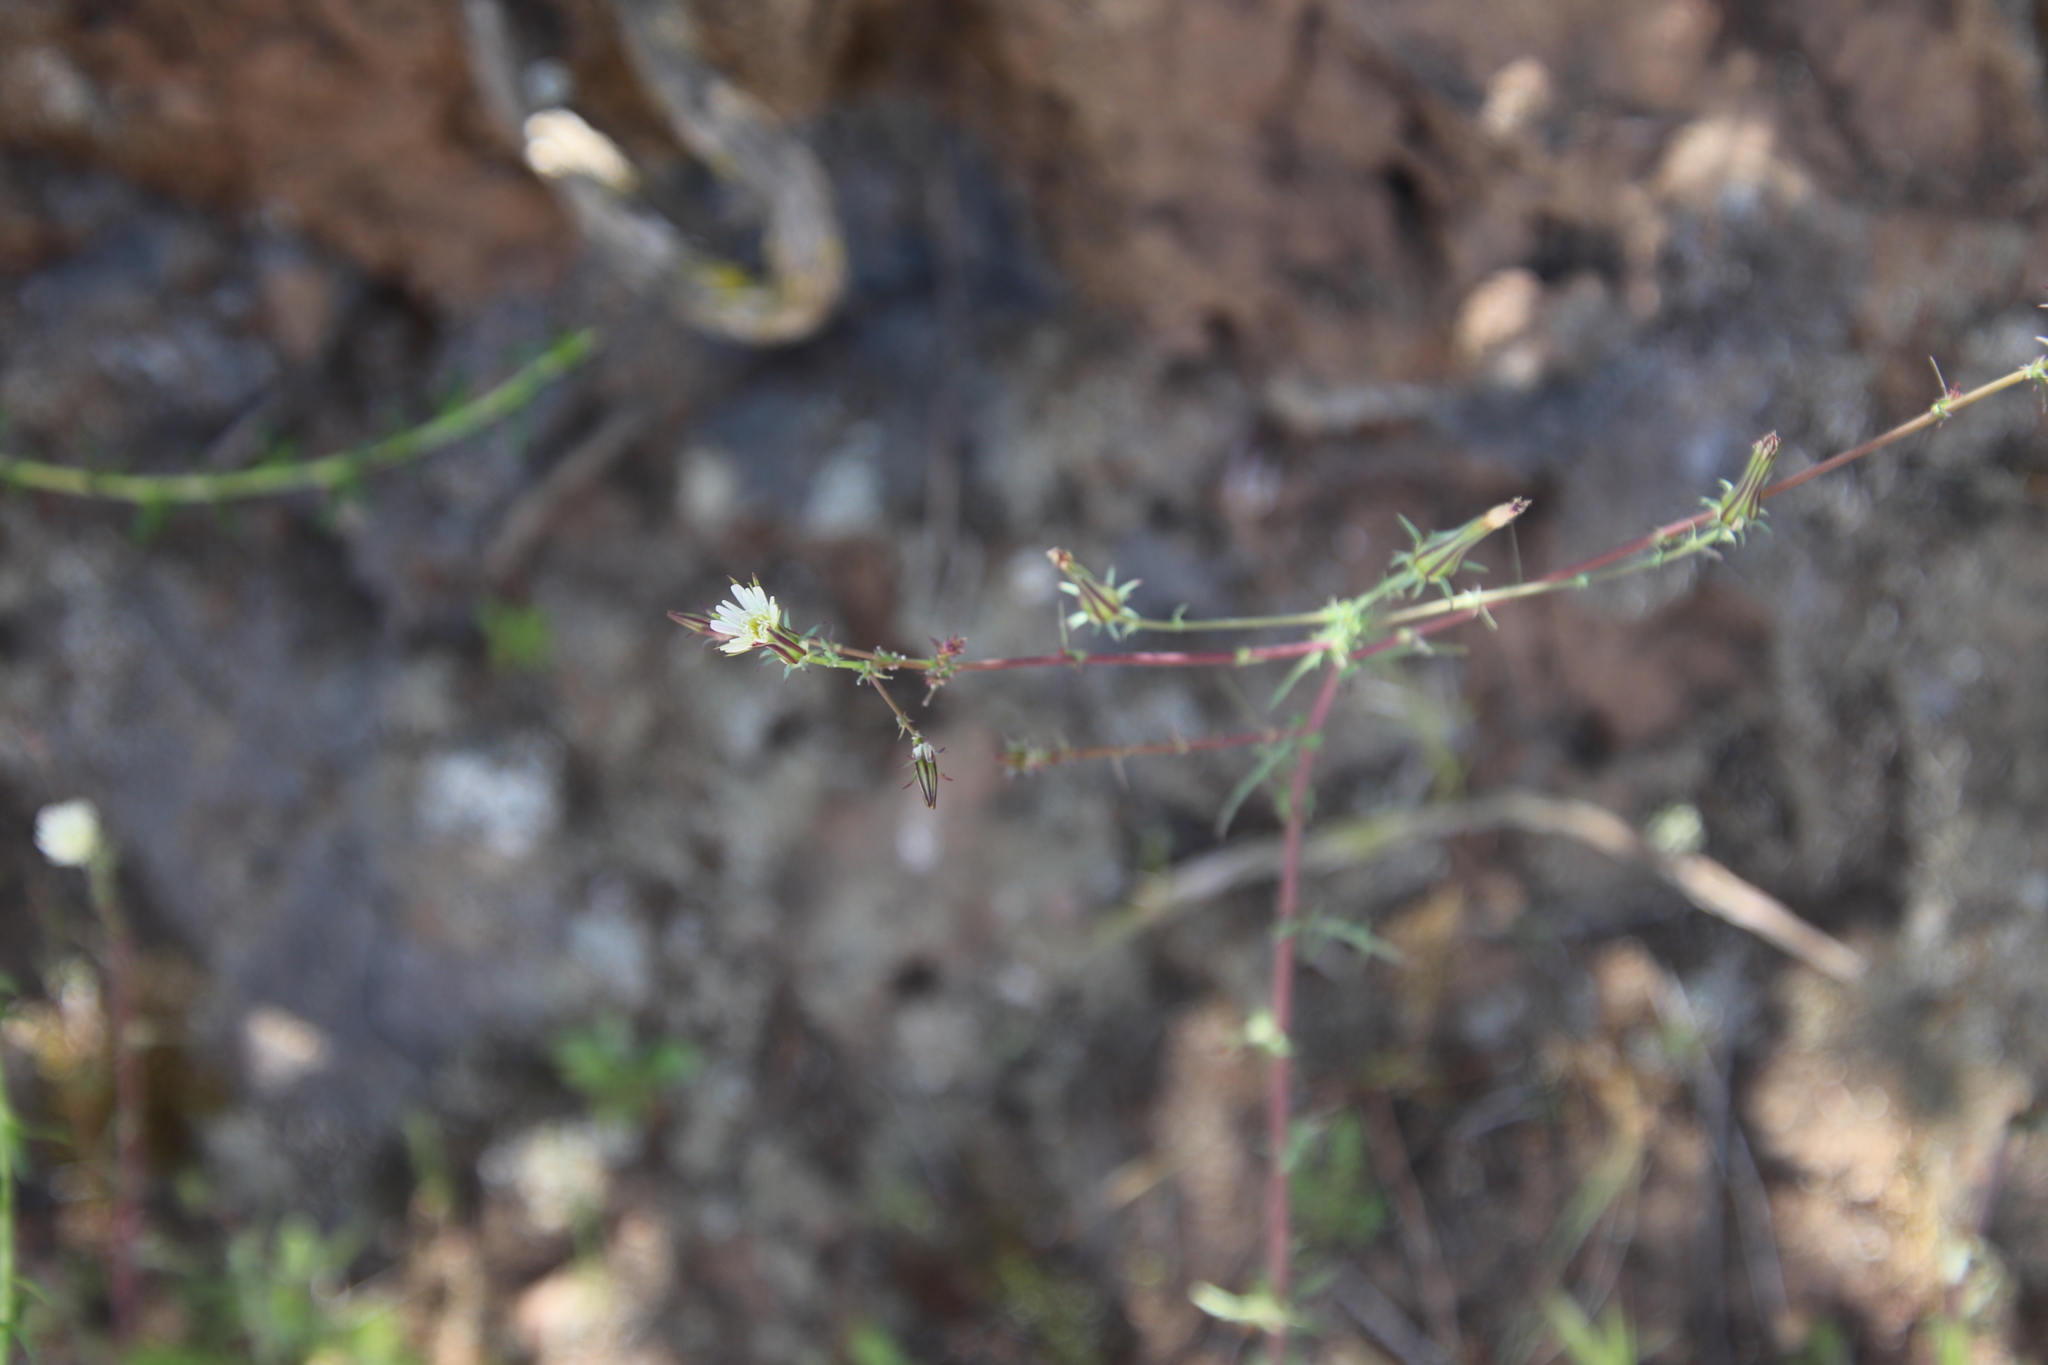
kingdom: Plantae
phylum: Tracheophyta
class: Magnoliopsida
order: Asterales
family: Asteraceae
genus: Rafinesquia
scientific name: Rafinesquia californica
